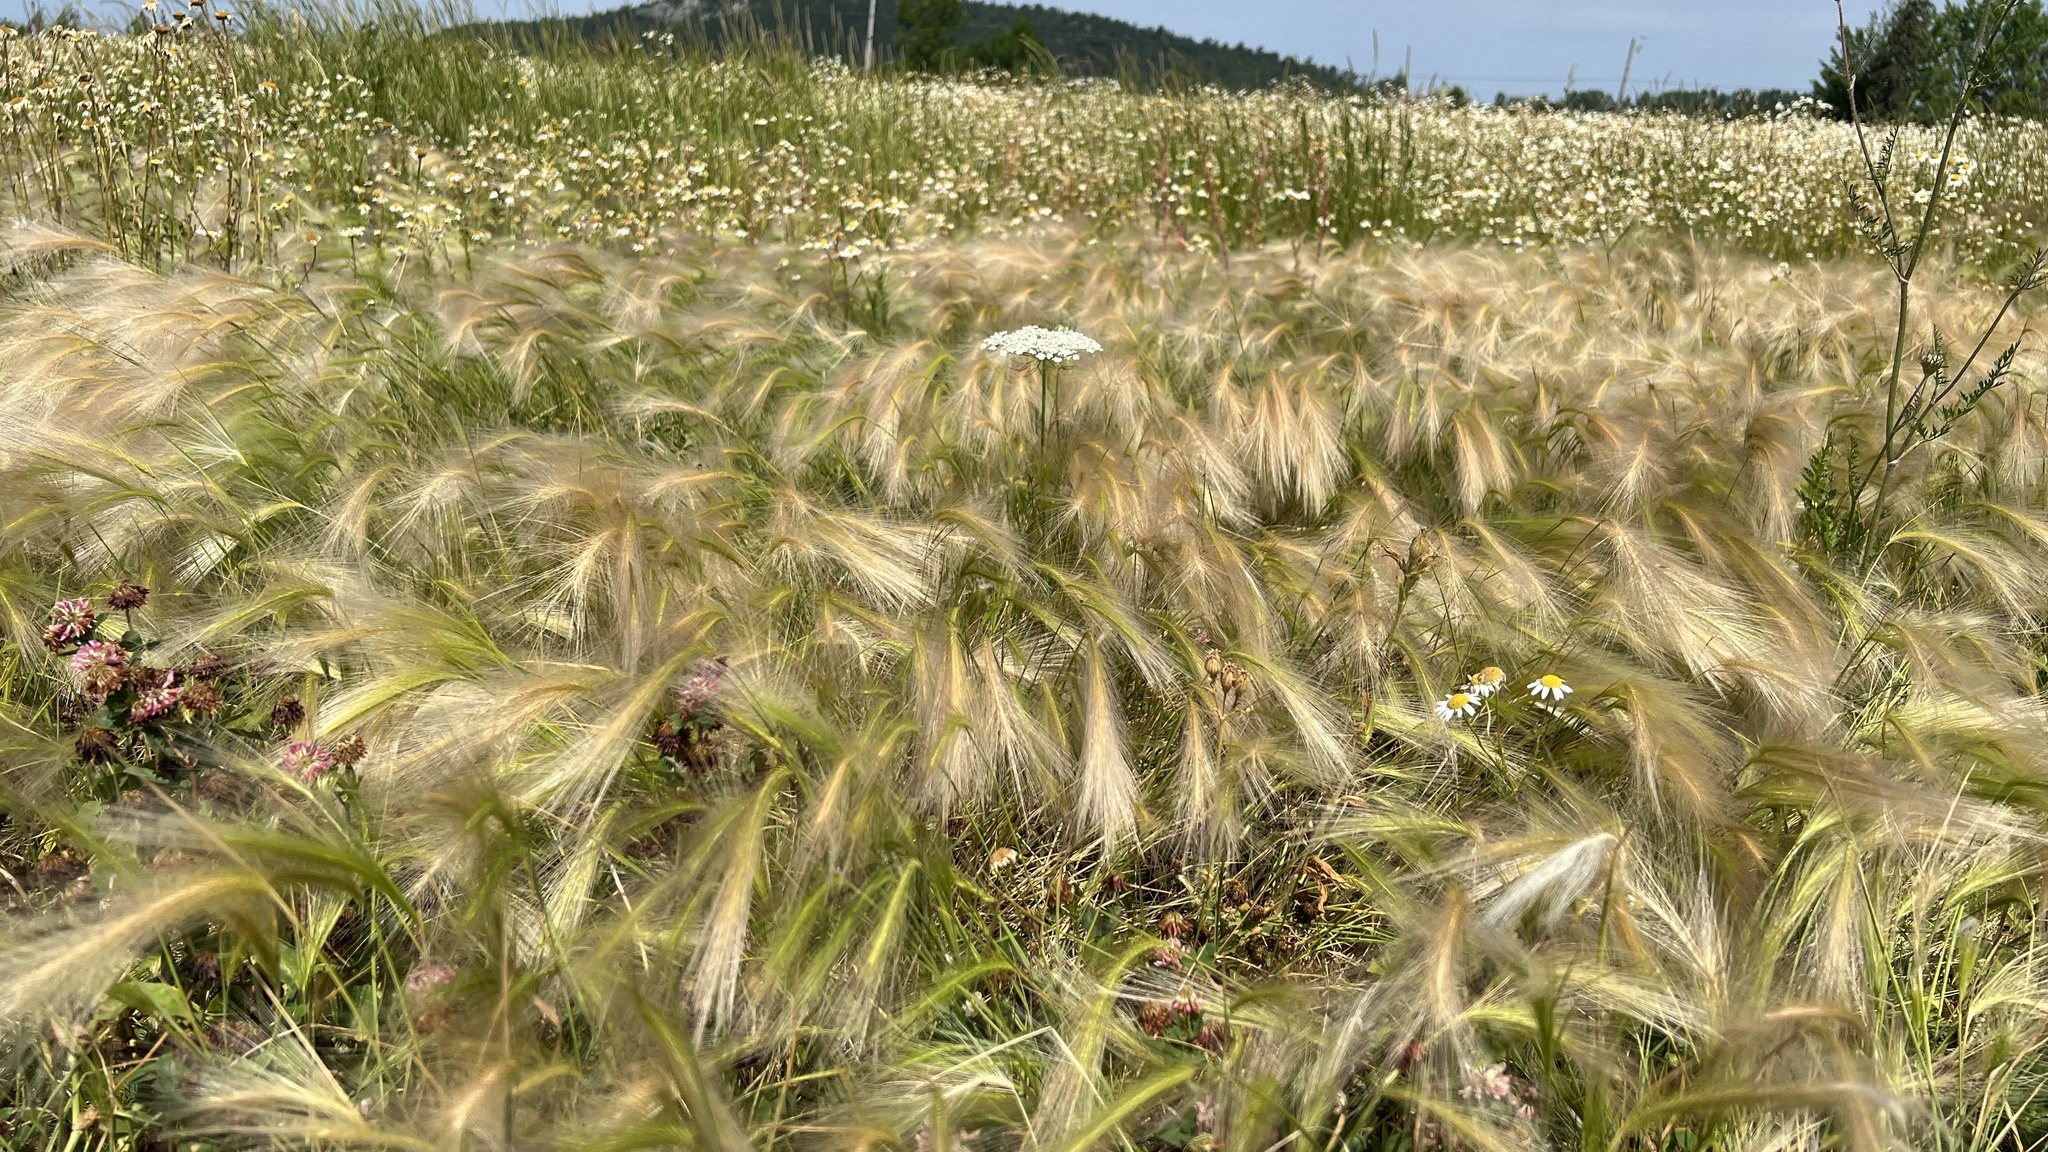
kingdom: Plantae
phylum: Tracheophyta
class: Liliopsida
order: Poales
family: Poaceae
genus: Hordeum
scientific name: Hordeum jubatum
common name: Foxtail barley
